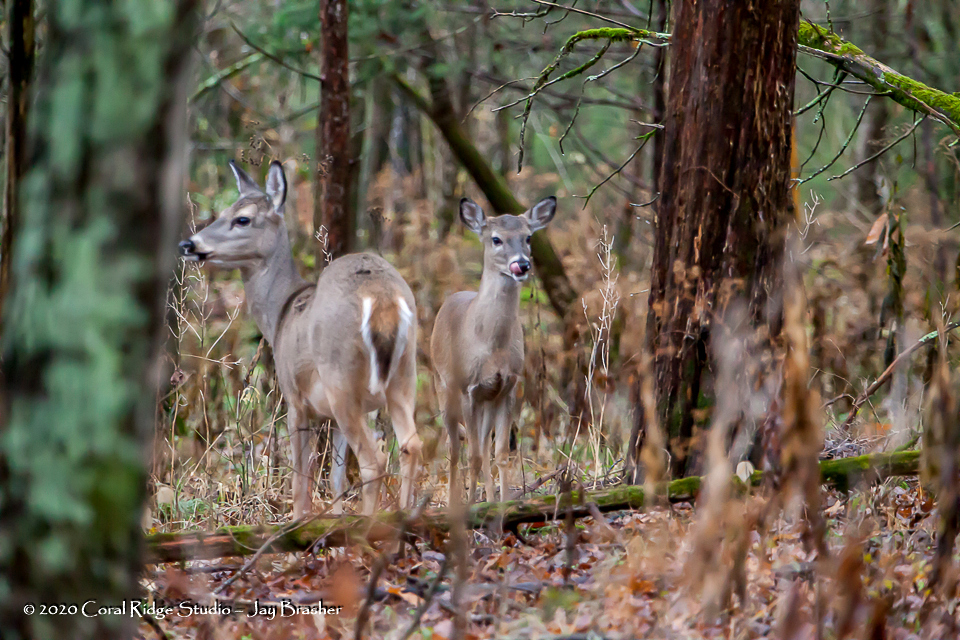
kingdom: Animalia
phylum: Chordata
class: Mammalia
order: Artiodactyla
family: Cervidae
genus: Odocoileus
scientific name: Odocoileus virginianus
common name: White-tailed deer
